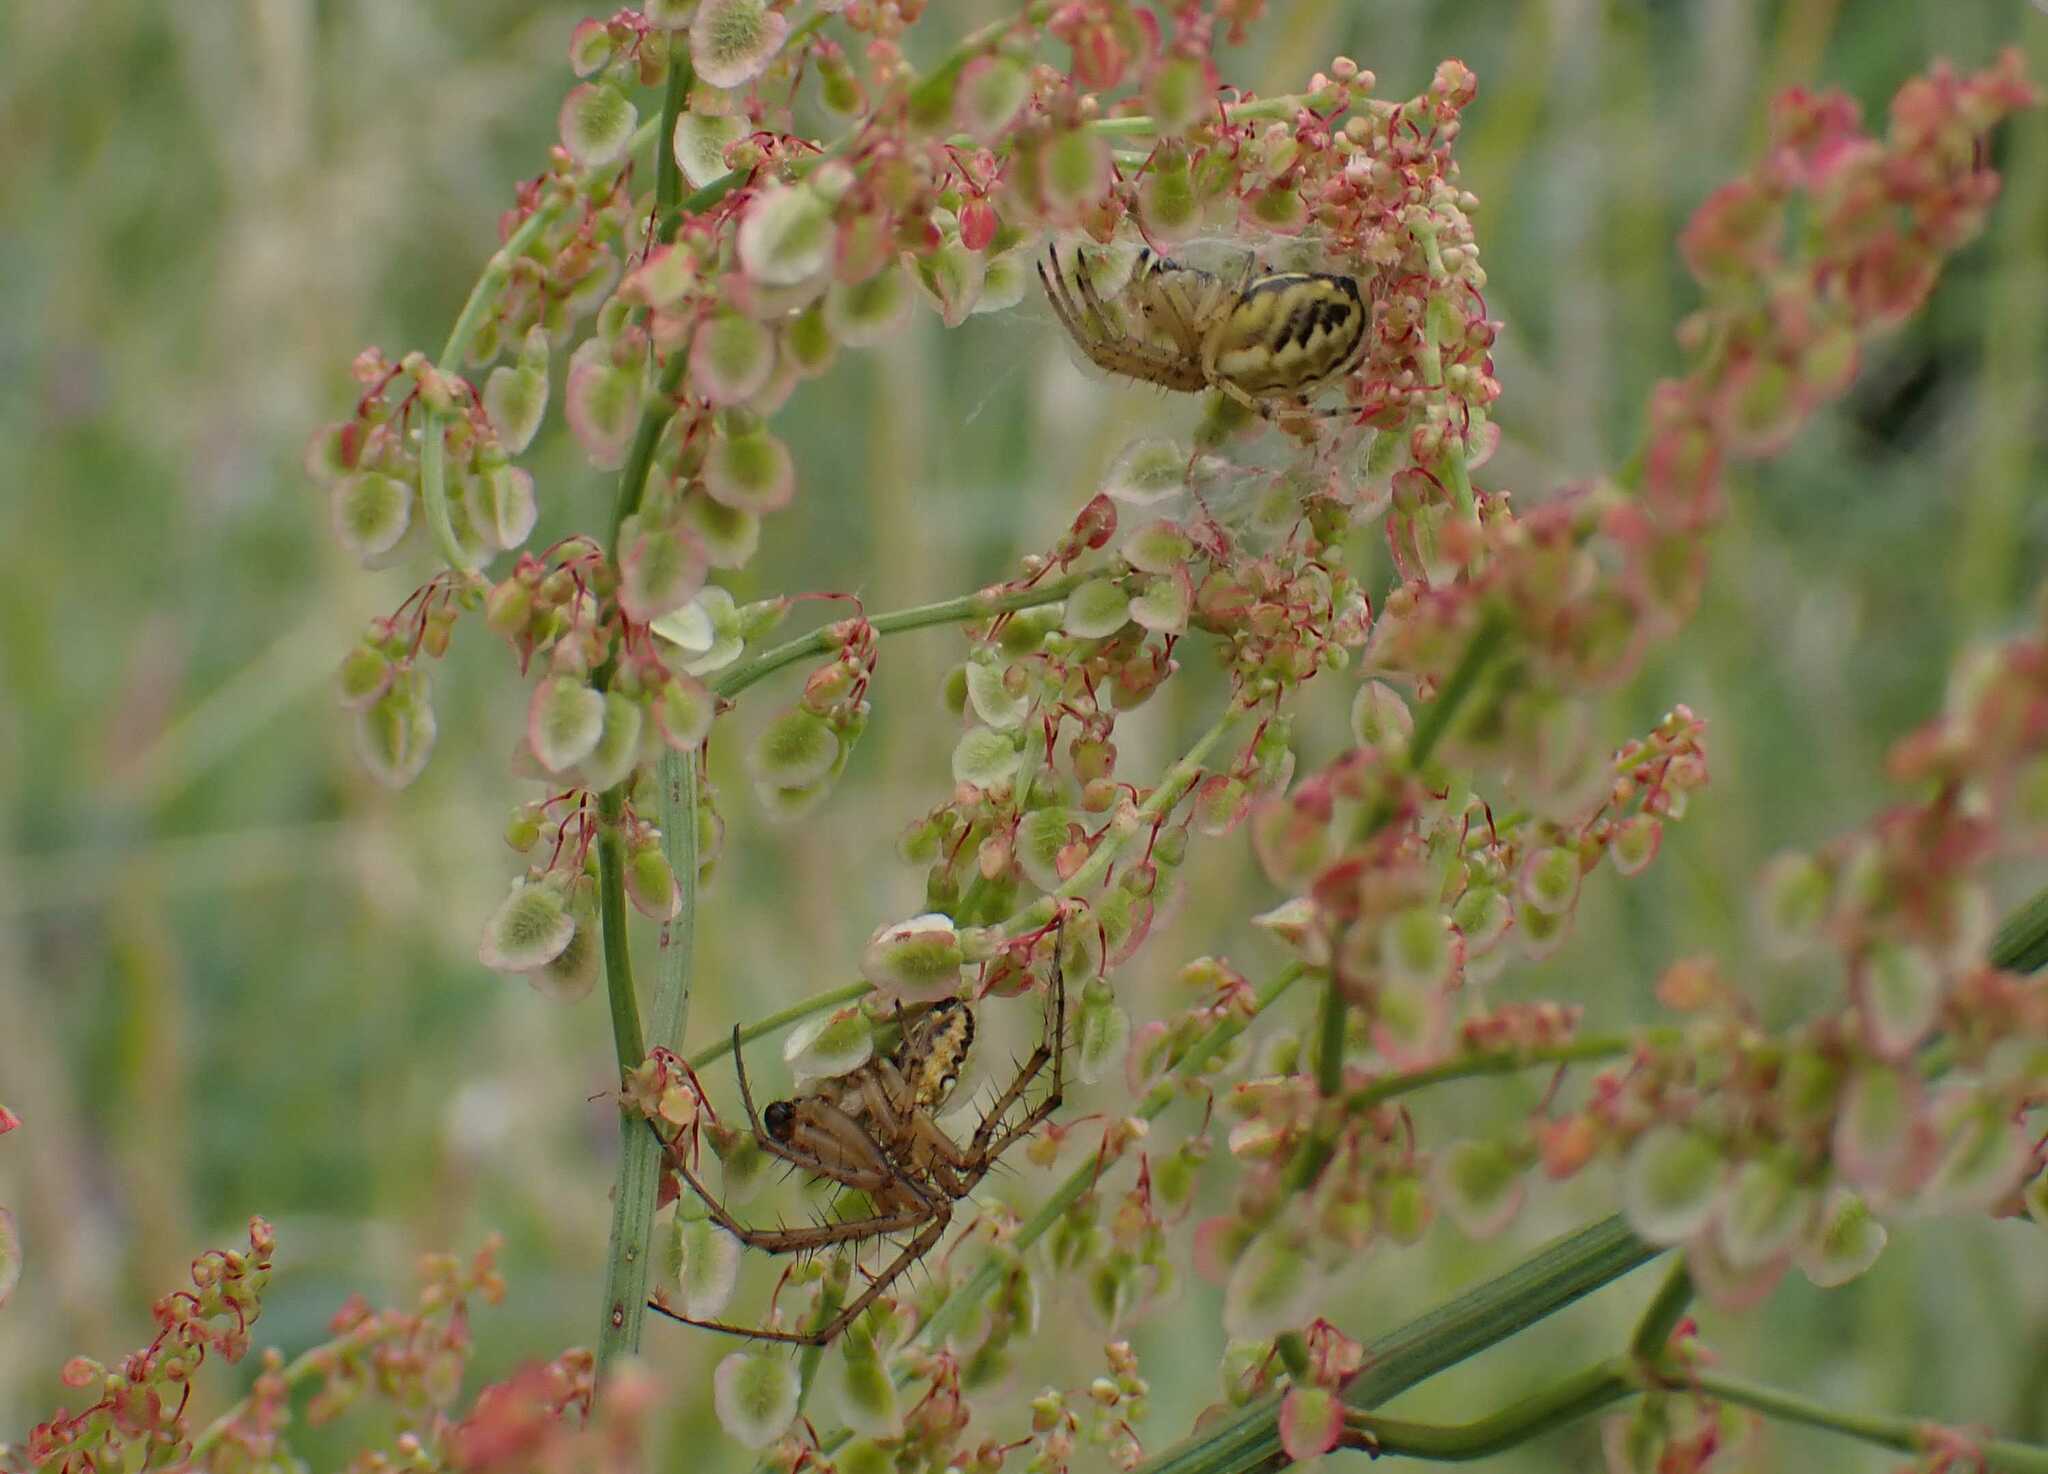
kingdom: Animalia
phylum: Arthropoda
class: Arachnida
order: Araneae
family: Araneidae
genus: Neoscona
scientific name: Neoscona adianta
